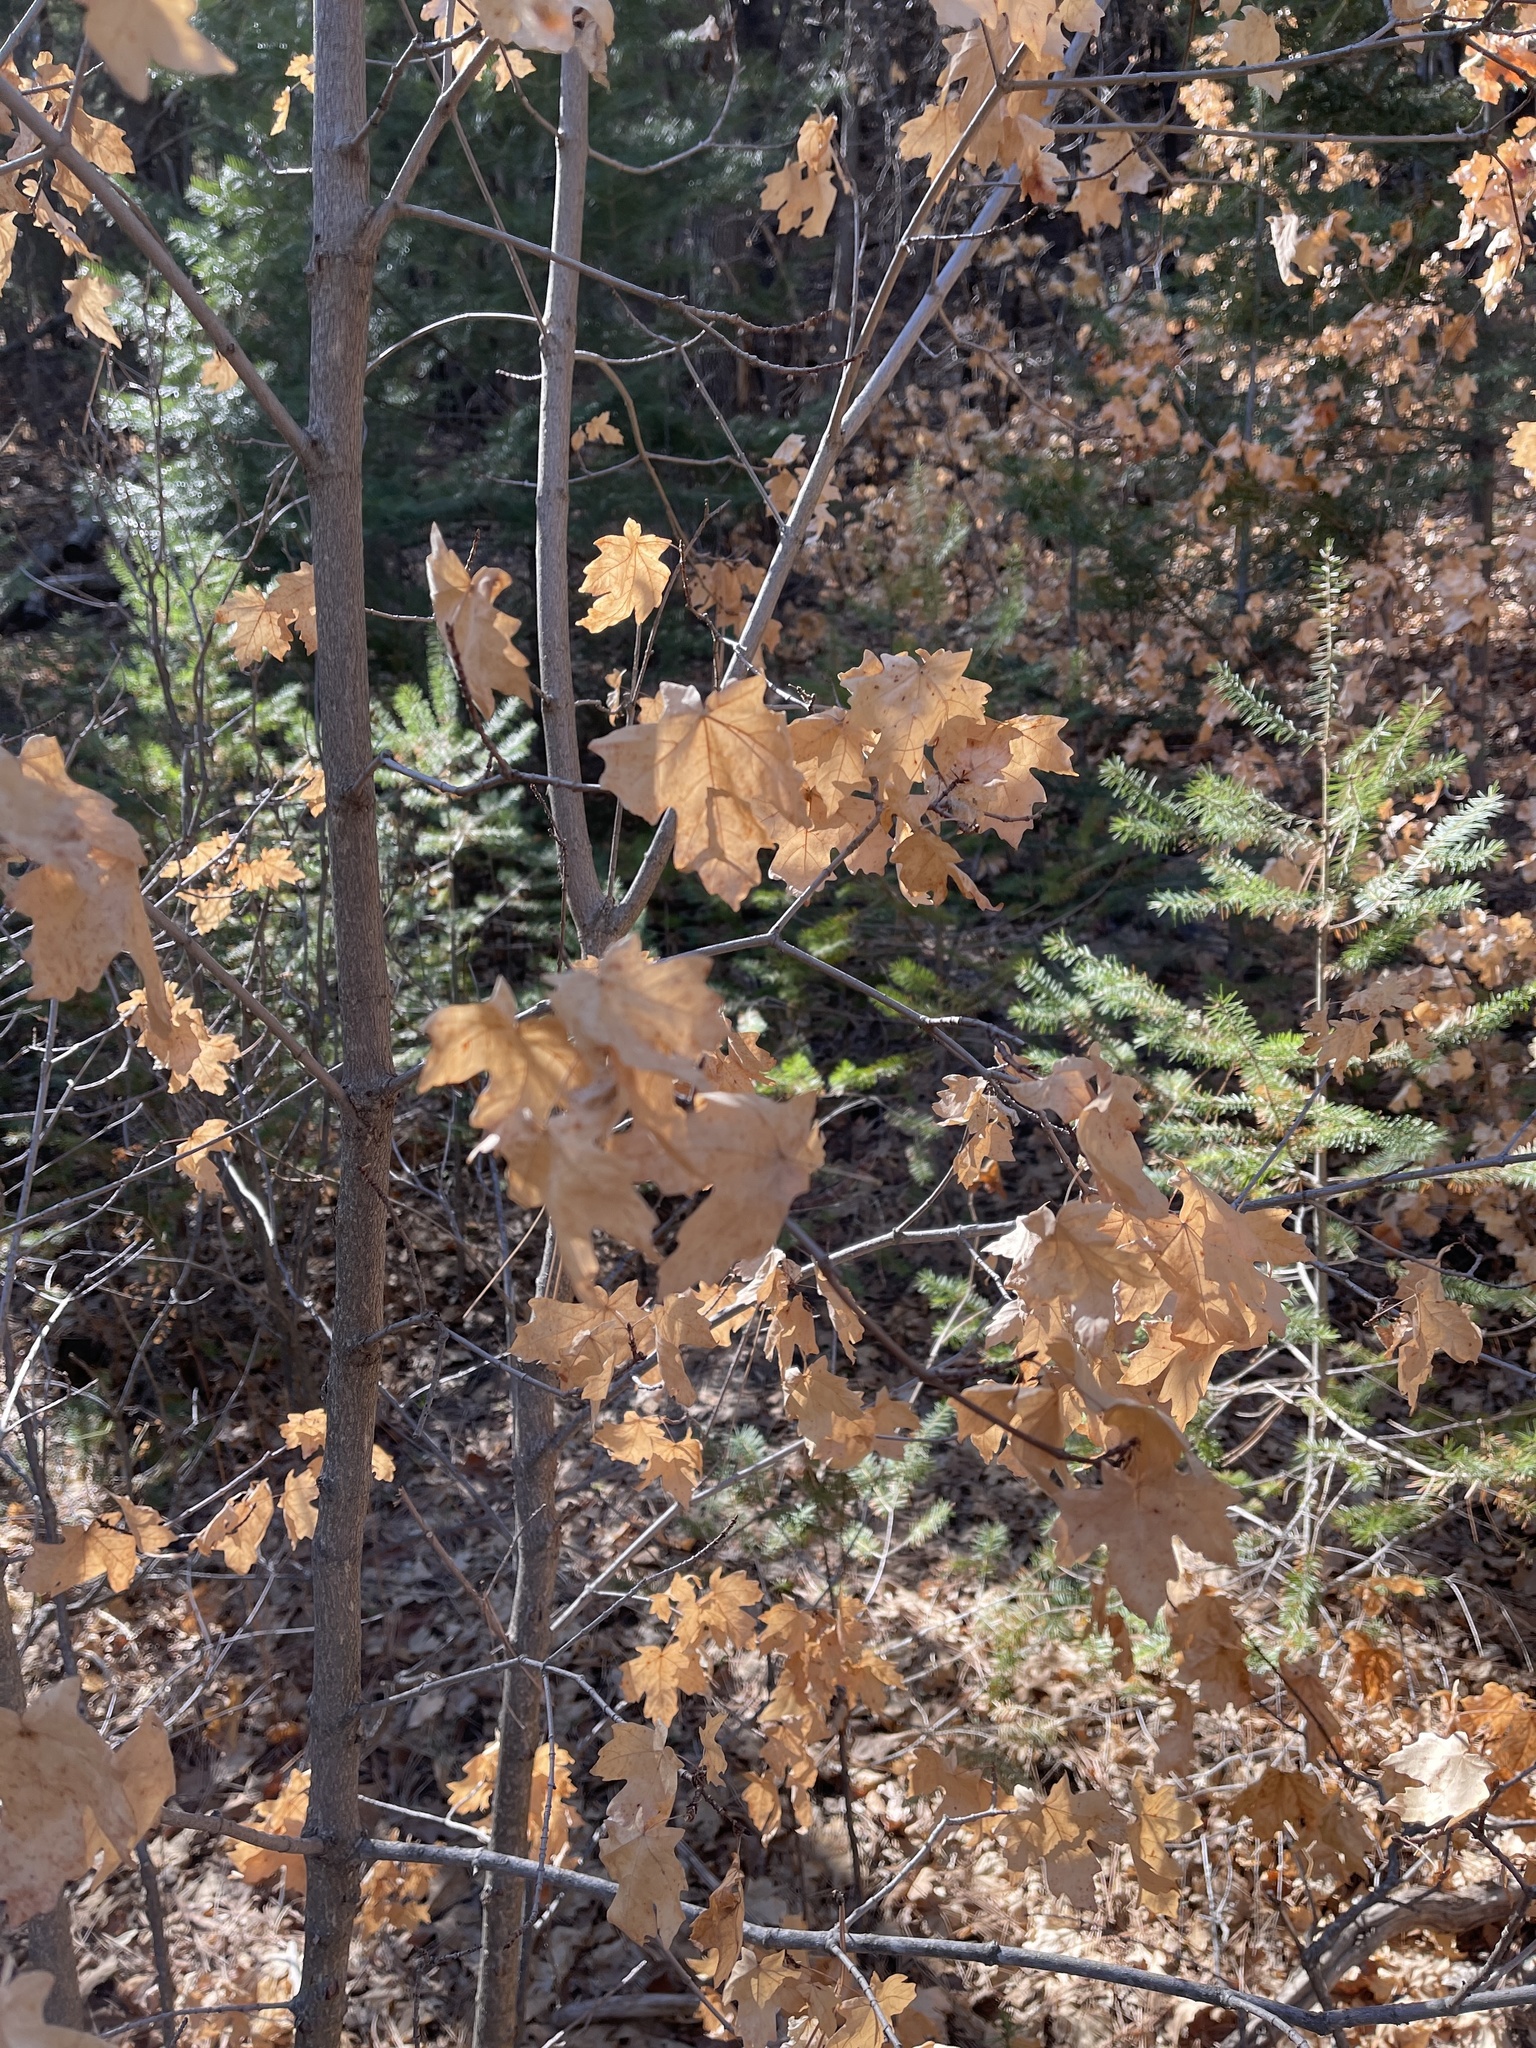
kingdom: Plantae
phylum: Tracheophyta
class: Magnoliopsida
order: Sapindales
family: Sapindaceae
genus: Acer
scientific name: Acer grandidentatum
